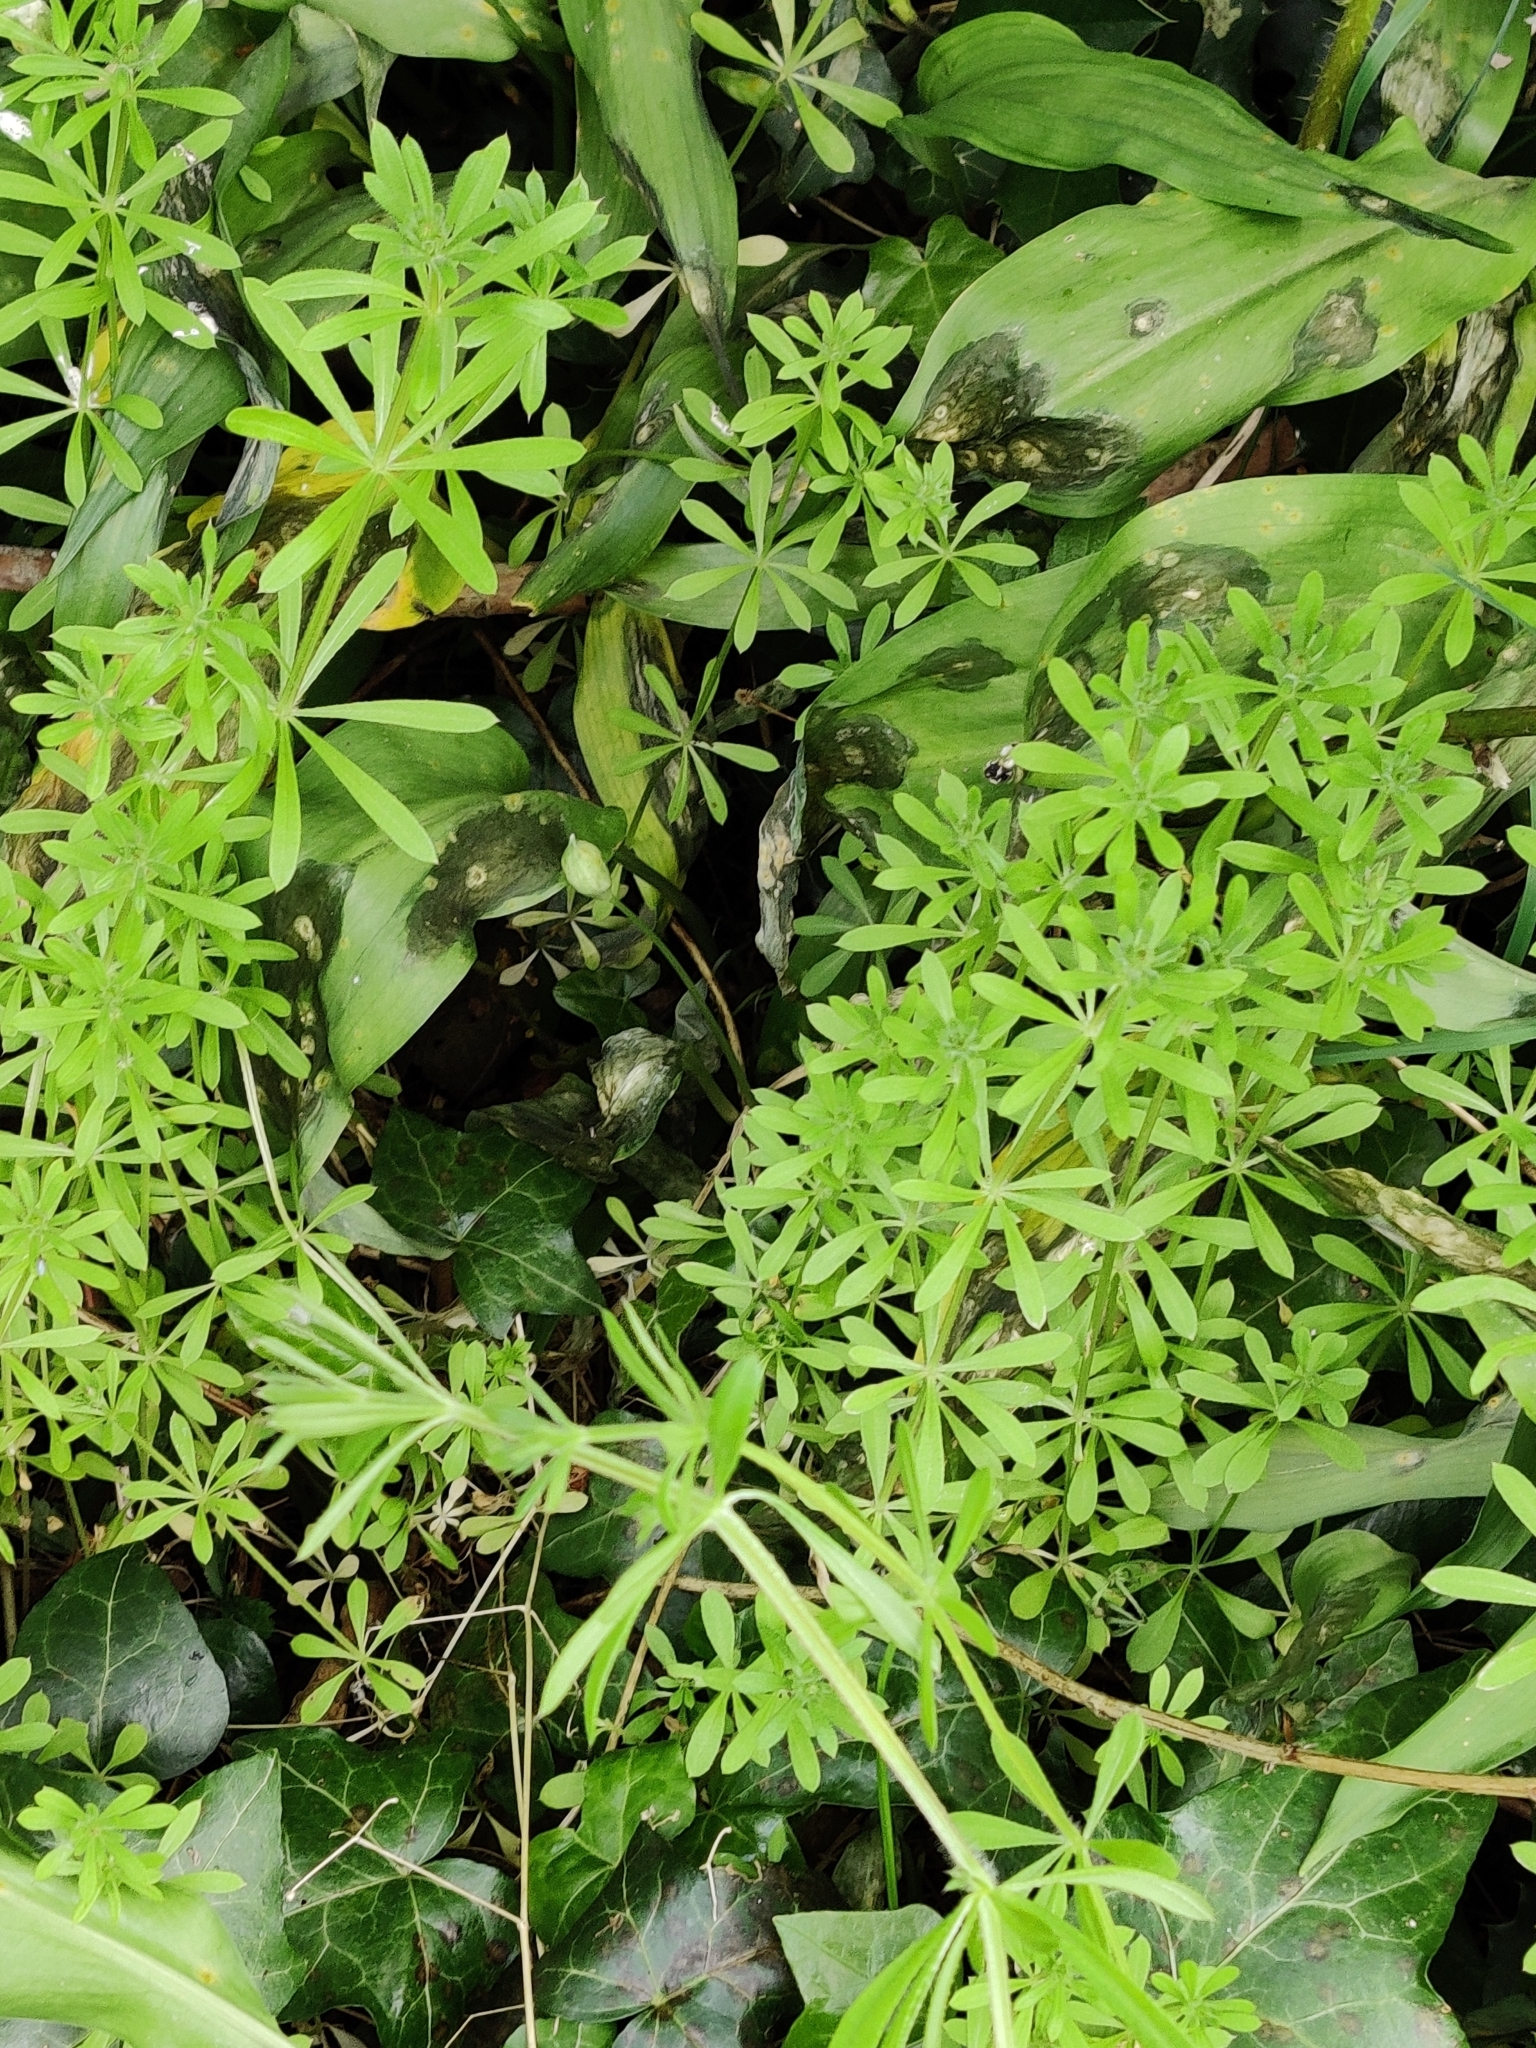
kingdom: Plantae
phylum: Tracheophyta
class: Magnoliopsida
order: Gentianales
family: Rubiaceae
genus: Galium
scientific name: Galium aparine
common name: Cleavers
